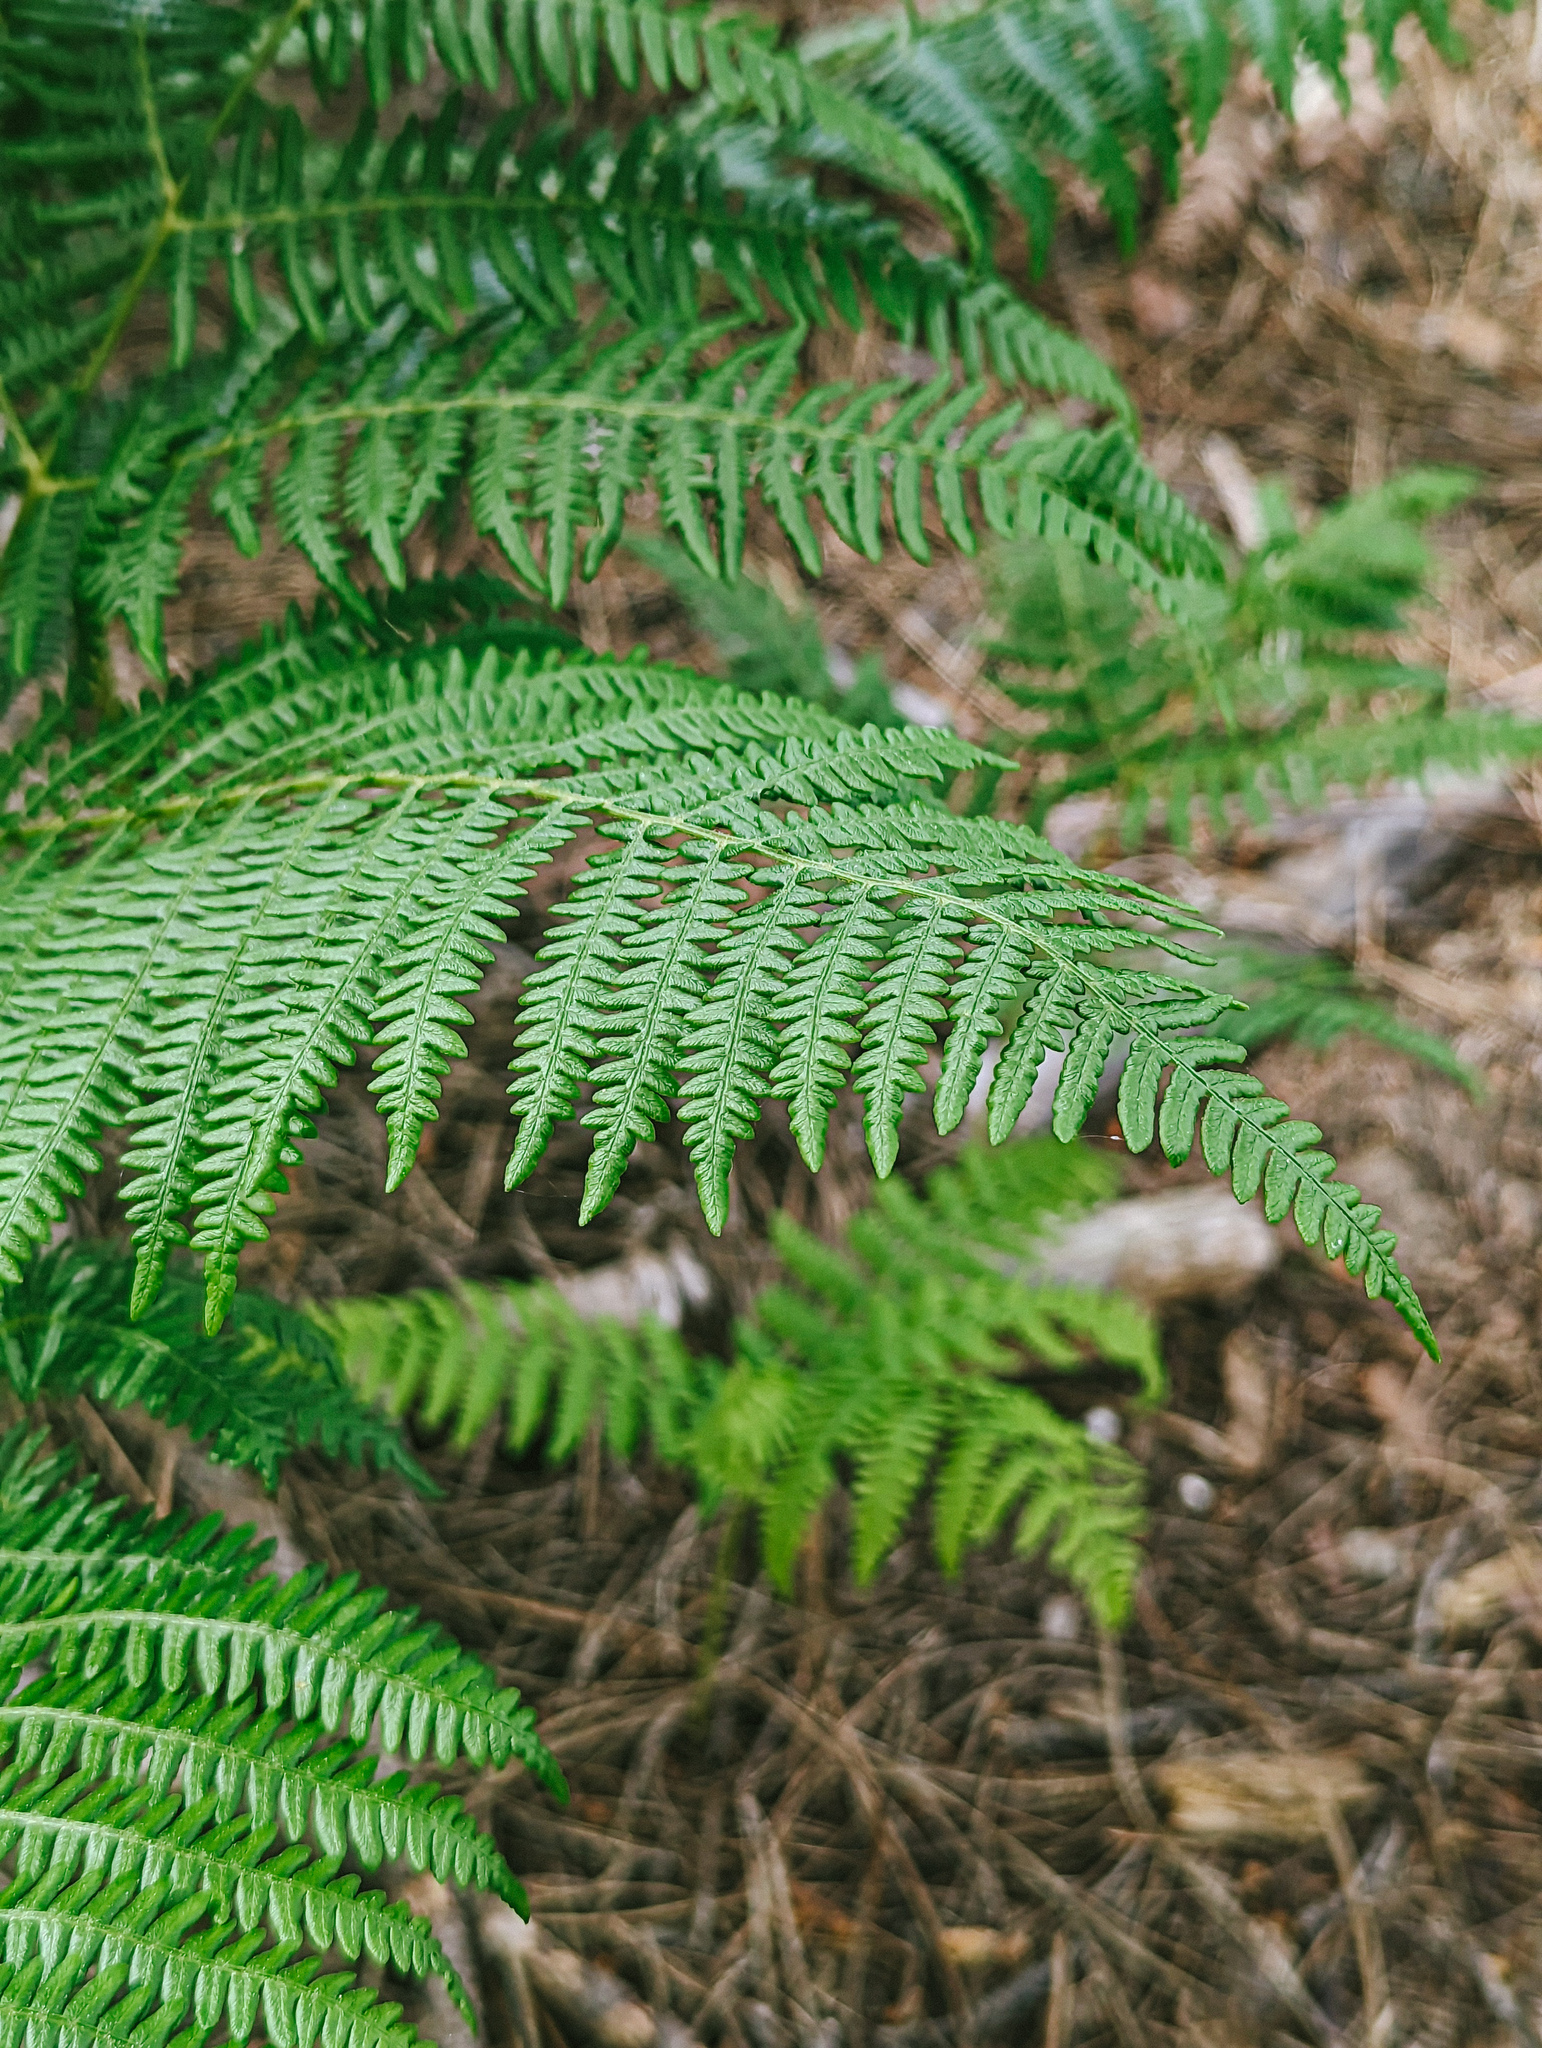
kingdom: Plantae
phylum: Tracheophyta
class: Polypodiopsida
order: Polypodiales
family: Dennstaedtiaceae
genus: Pteridium
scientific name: Pteridium aquilinum
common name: Bracken
